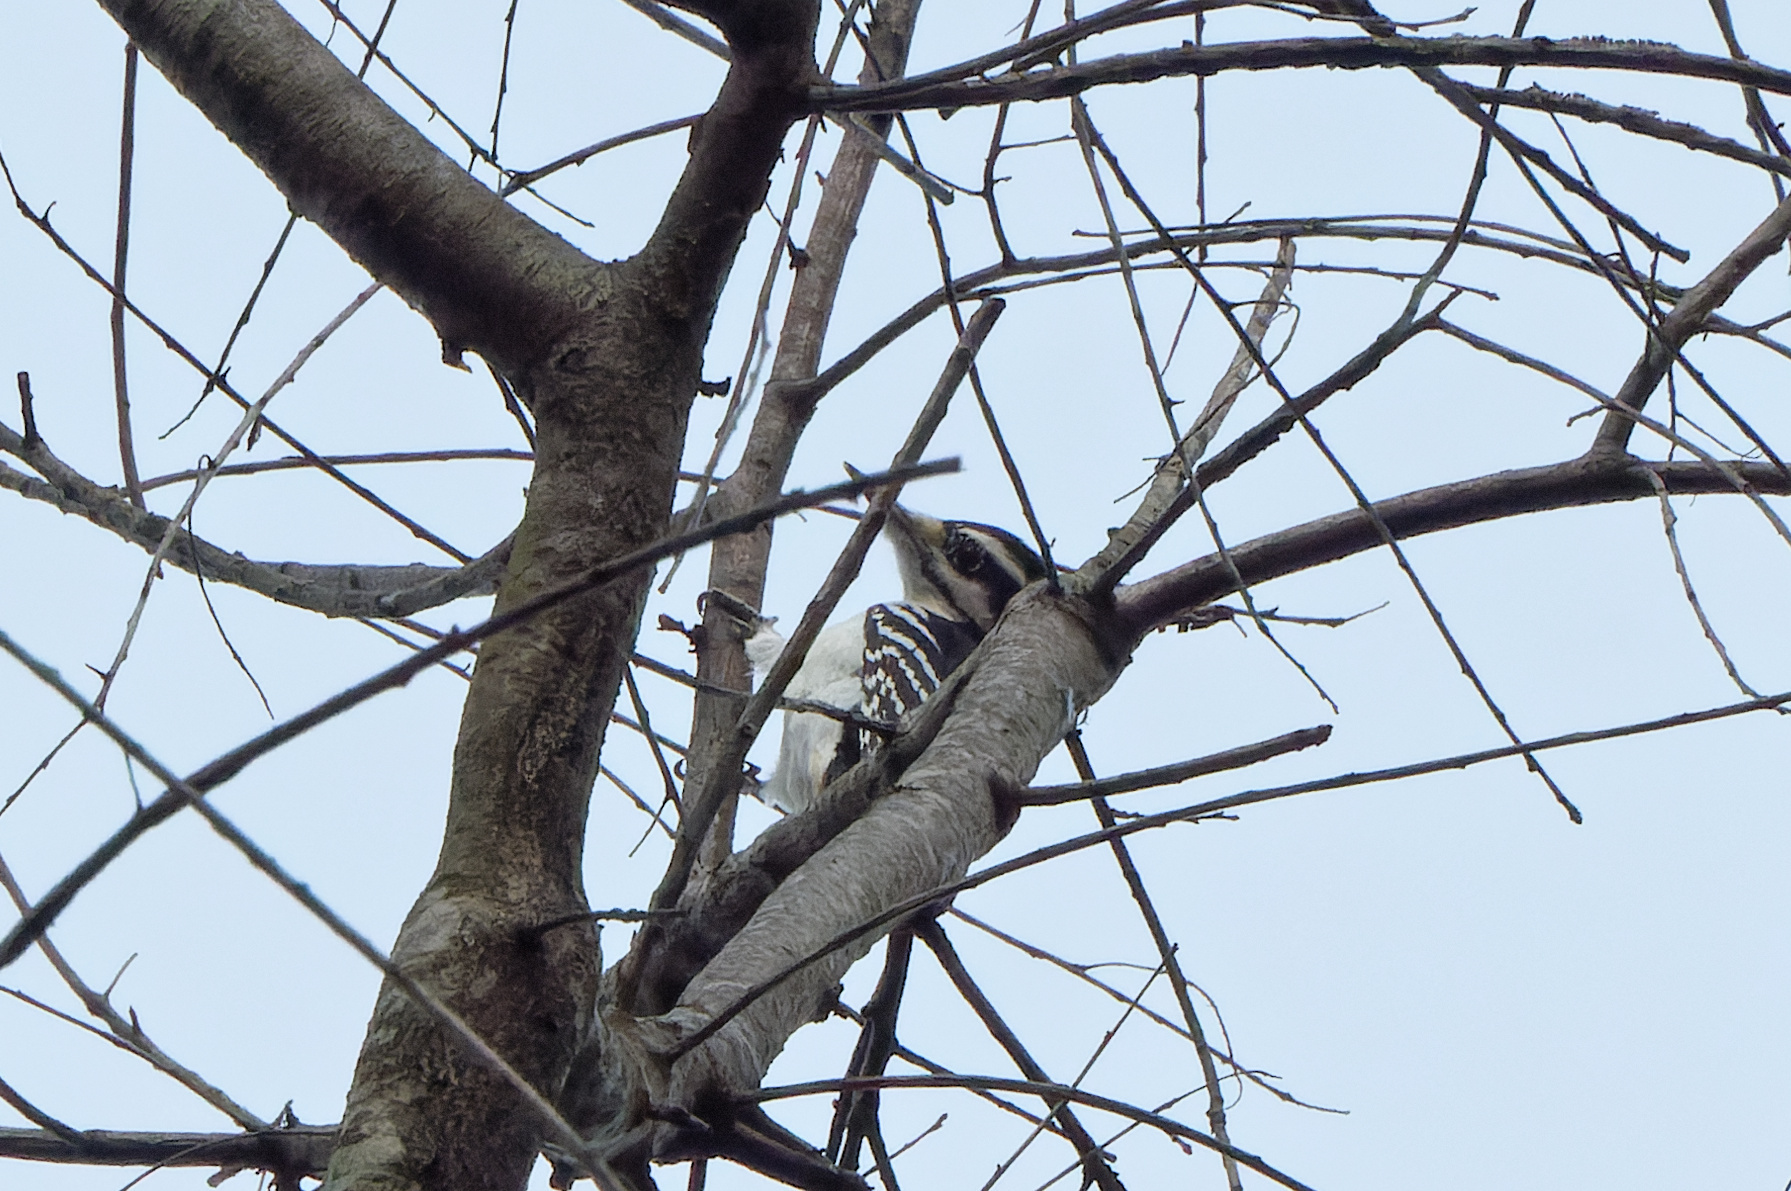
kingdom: Animalia
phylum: Chordata
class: Aves
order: Piciformes
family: Picidae
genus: Leuconotopicus
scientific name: Leuconotopicus villosus
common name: Hairy woodpecker
